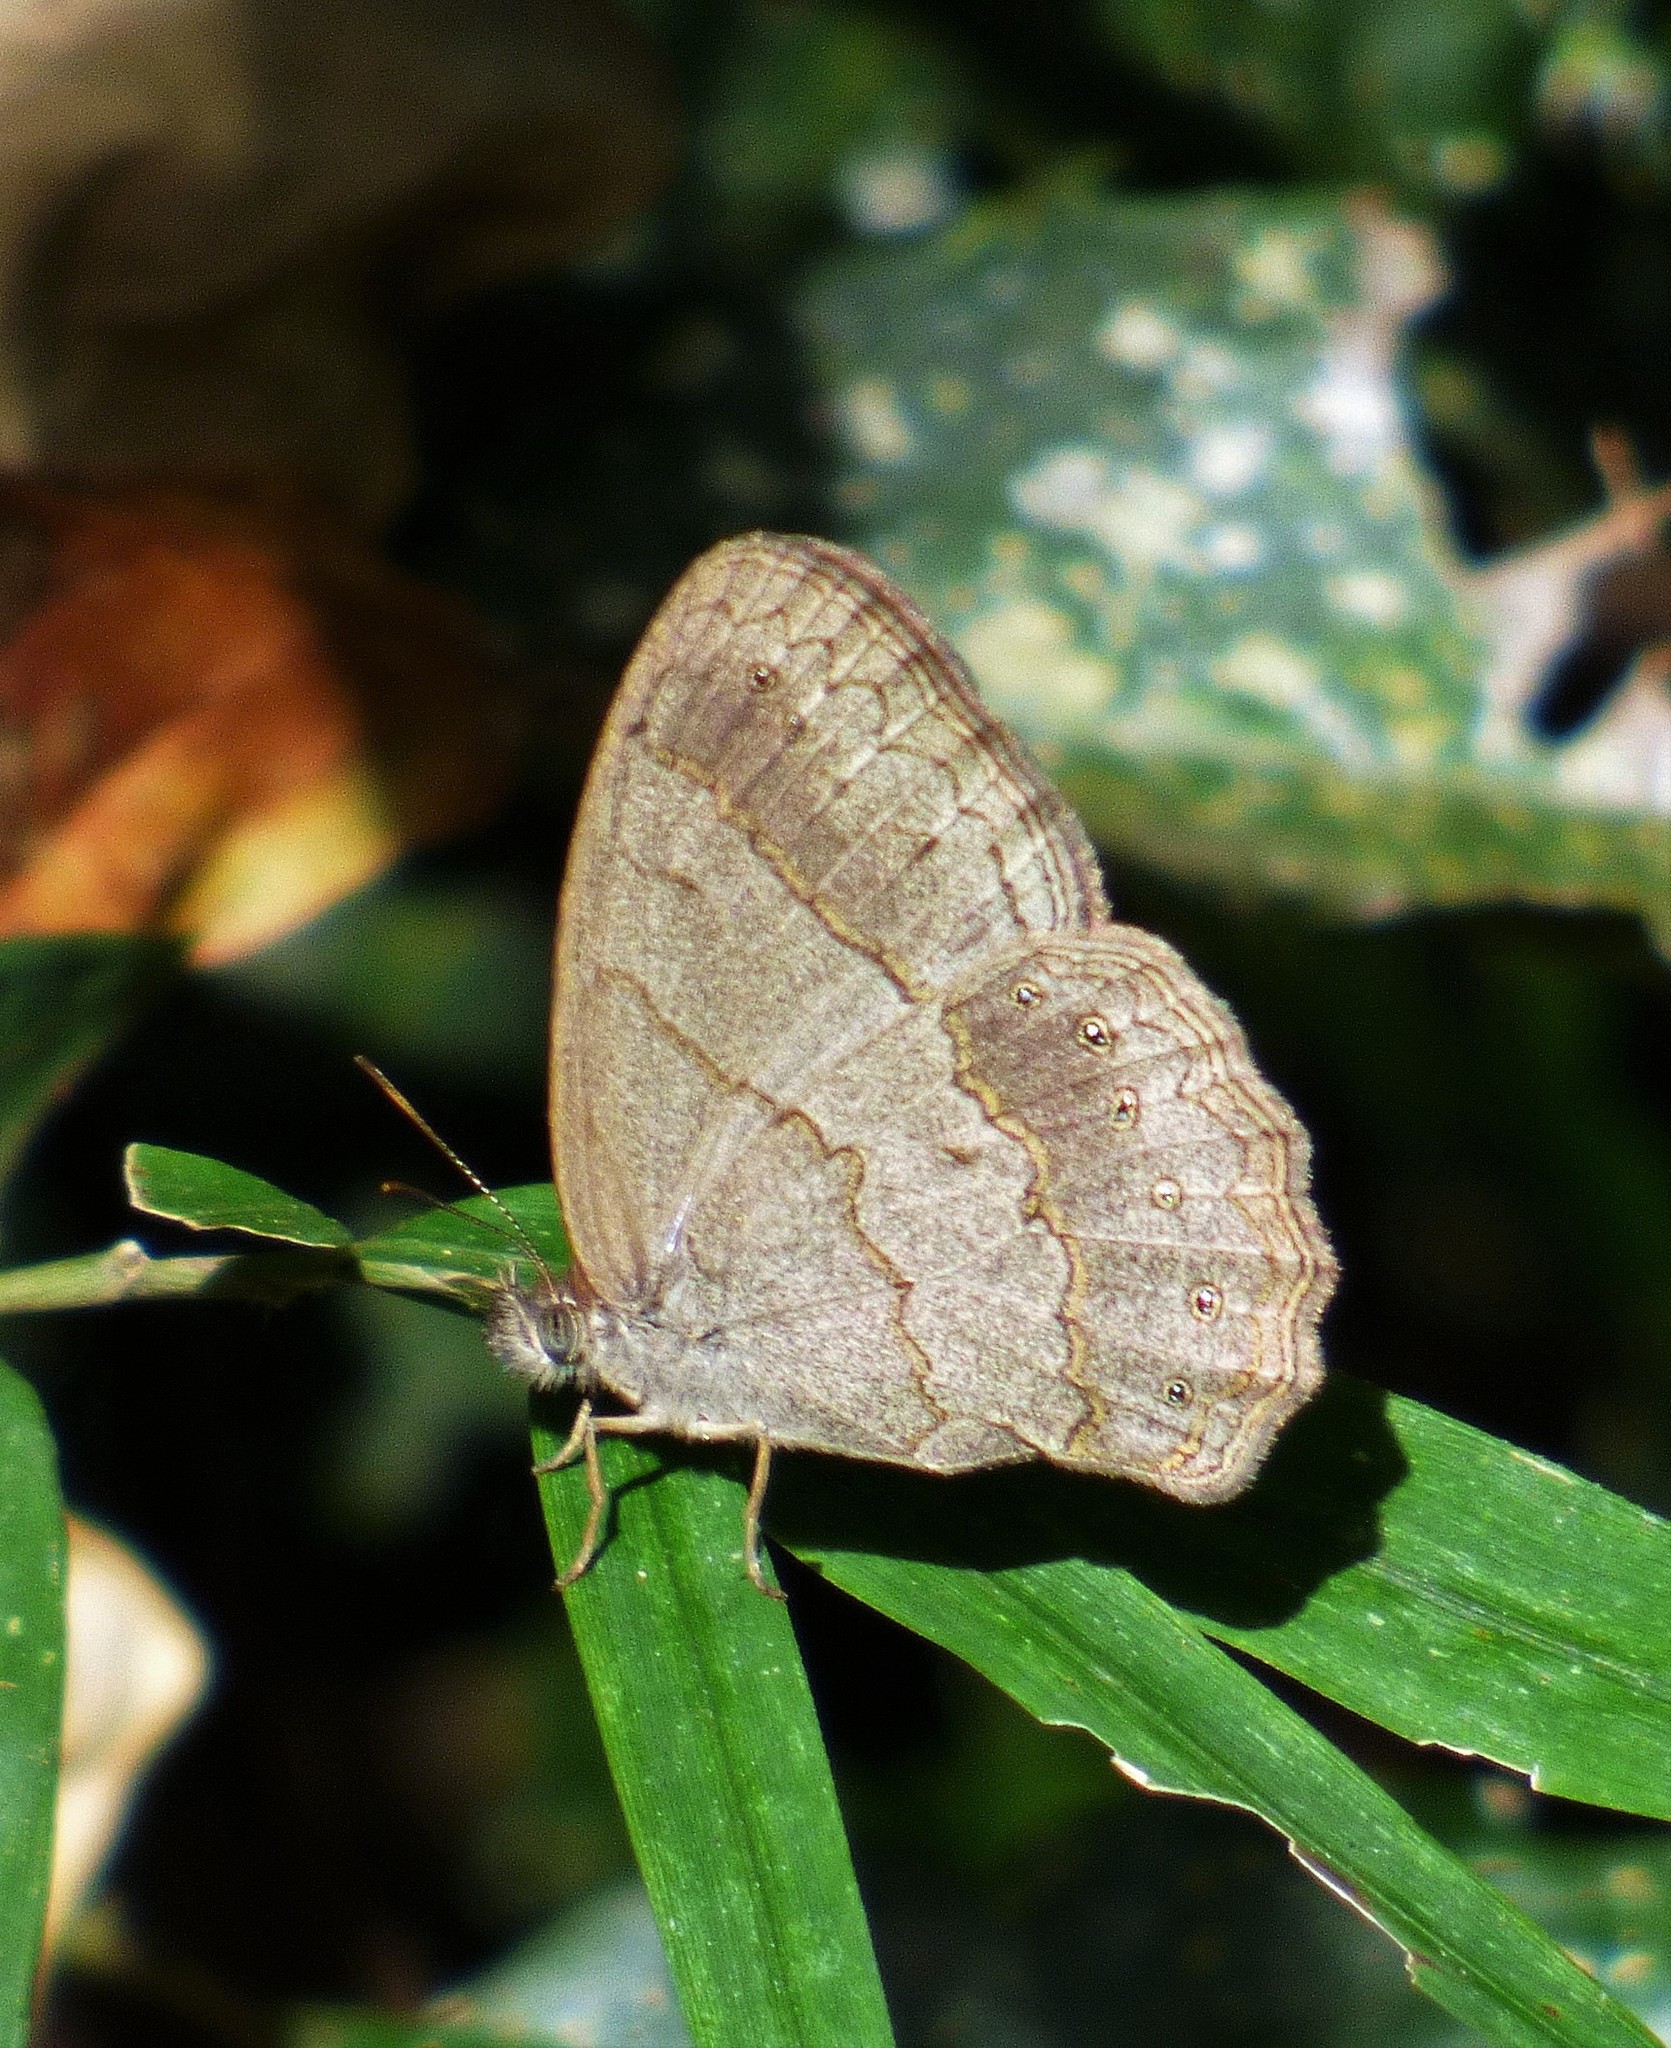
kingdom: Animalia
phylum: Arthropoda
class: Insecta
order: Lepidoptera
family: Nymphalidae
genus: Paryphthimoides
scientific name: Paryphthimoides poltys
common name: Poltys satyr
